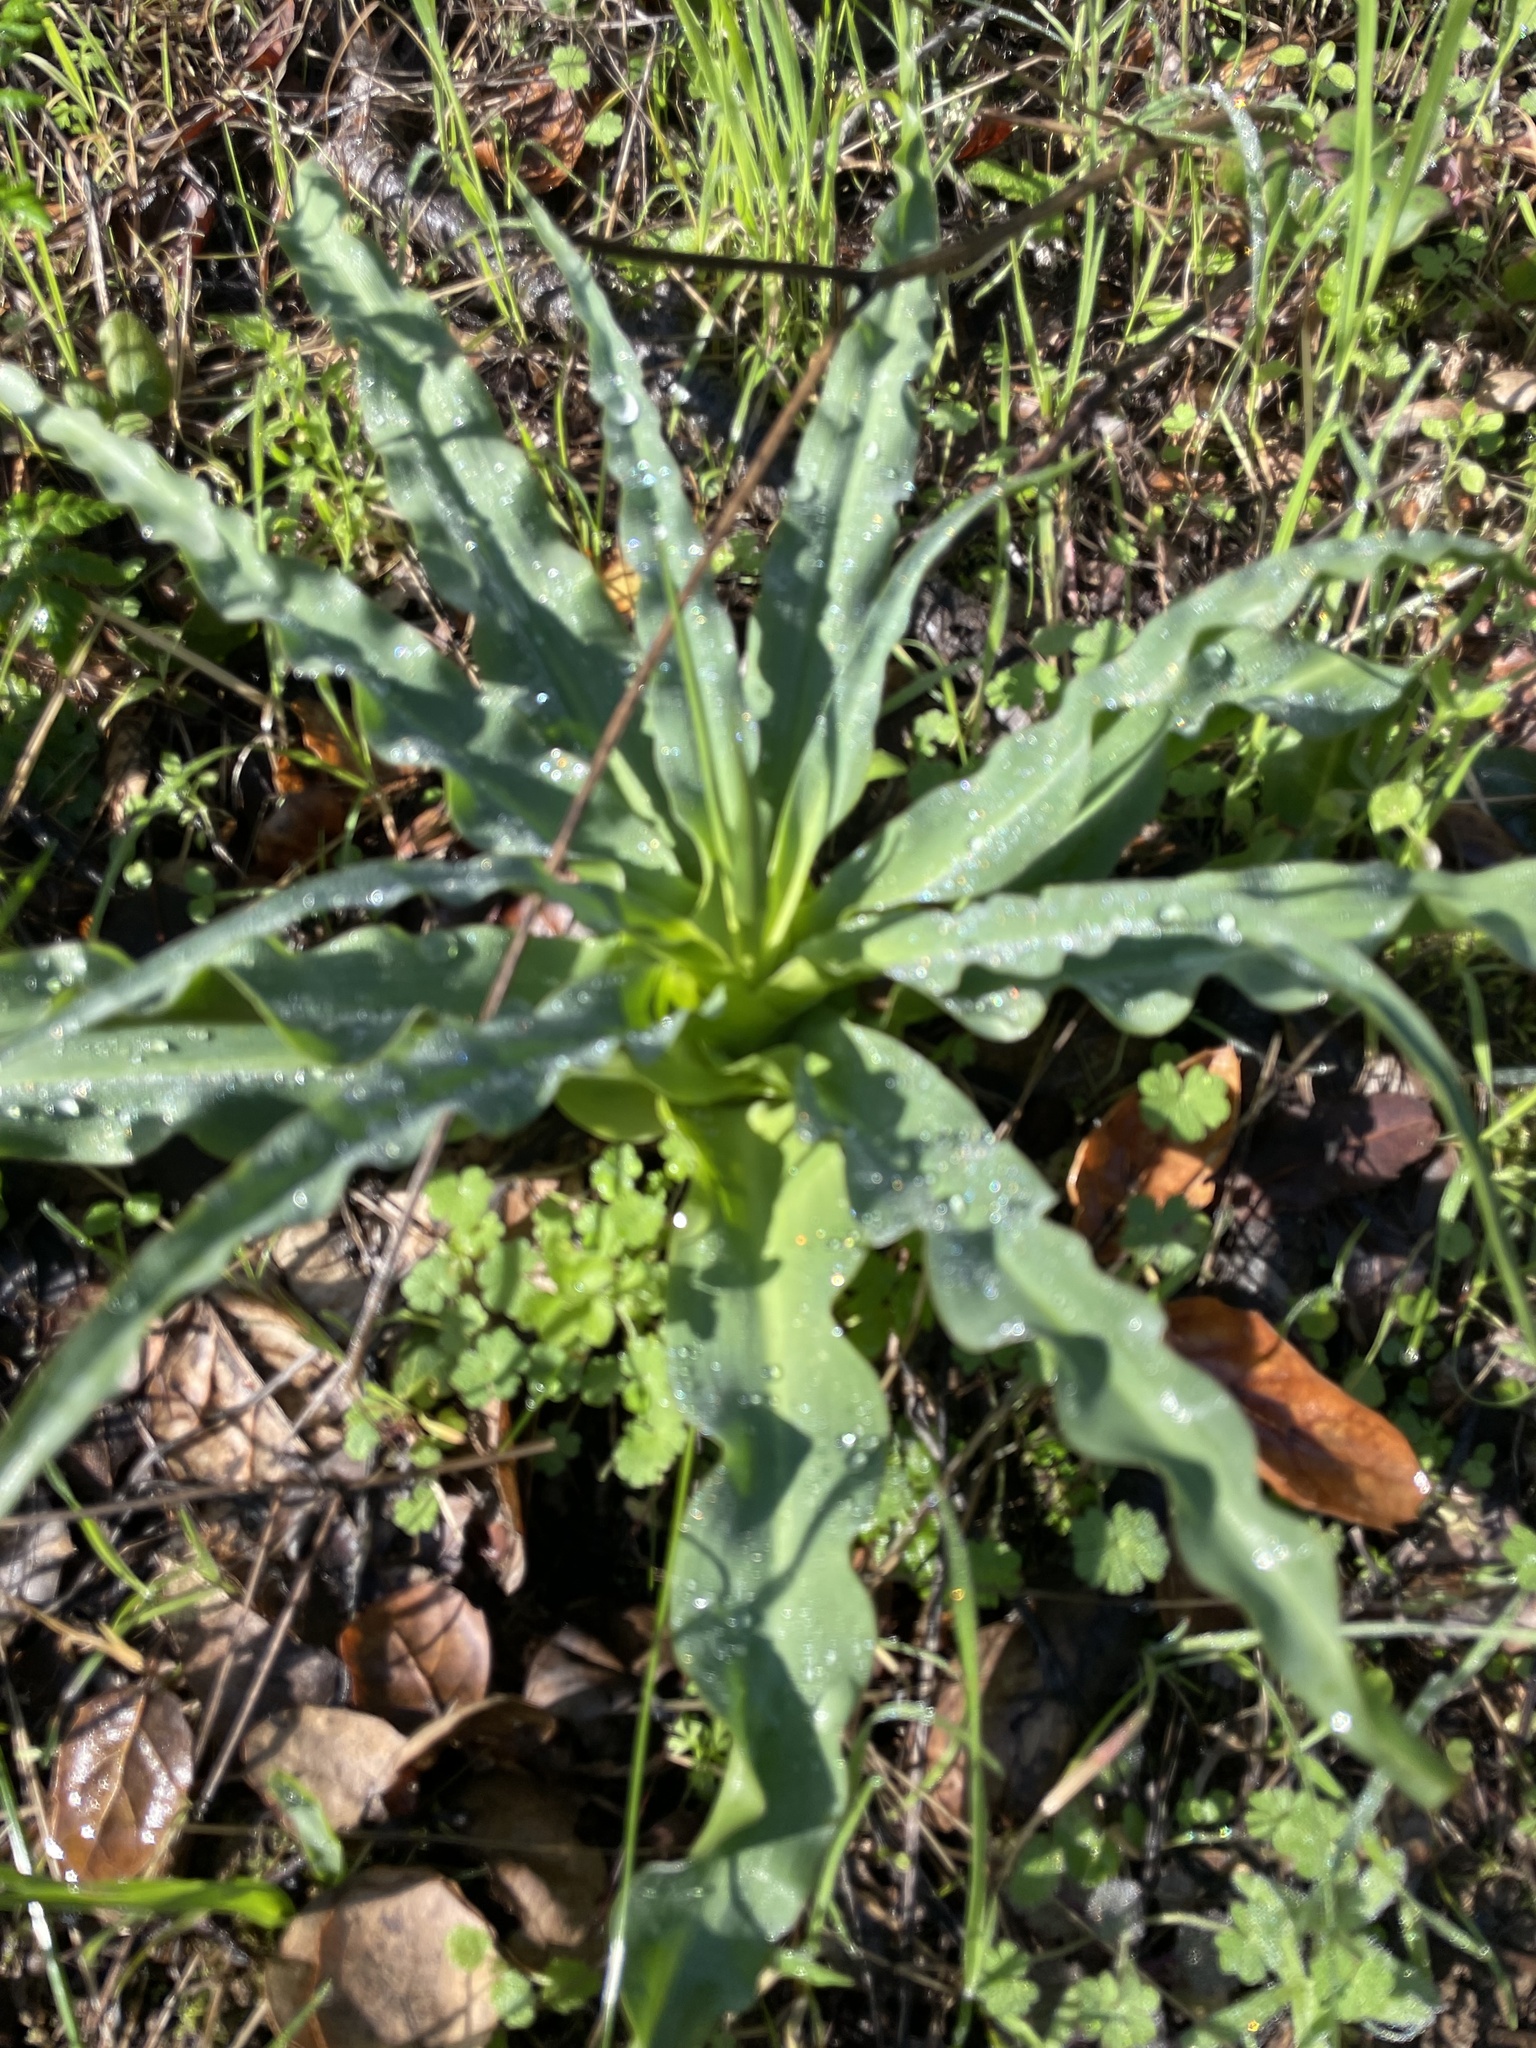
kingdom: Plantae
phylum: Tracheophyta
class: Liliopsida
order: Asparagales
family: Asparagaceae
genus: Chlorogalum
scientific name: Chlorogalum pomeridianum
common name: Amole
